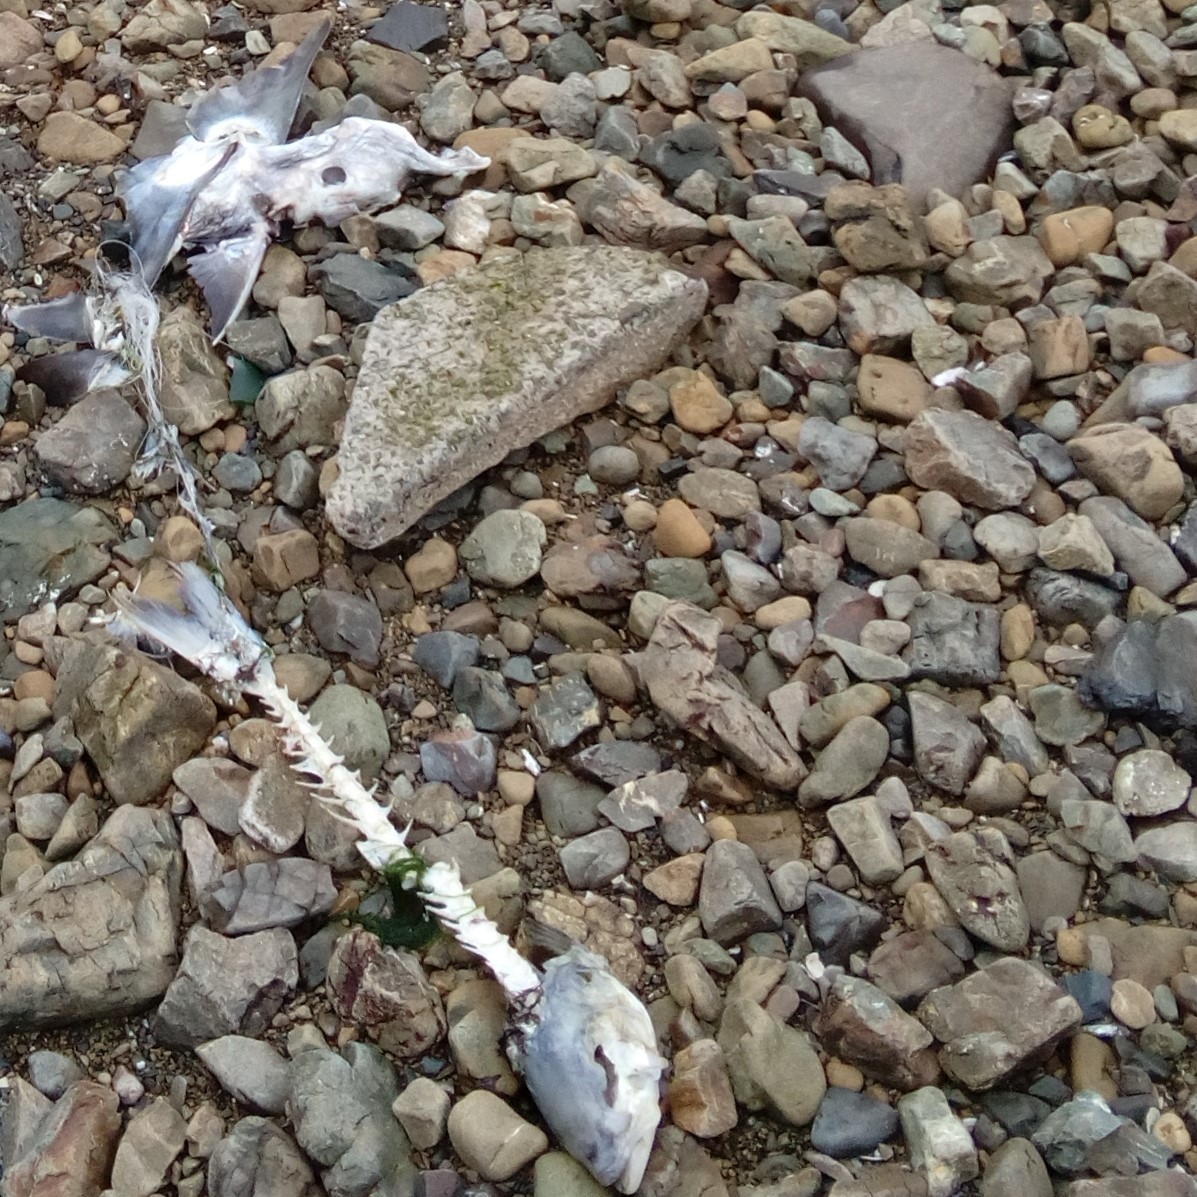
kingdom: Animalia
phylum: Chordata
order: Perciformes
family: Arripidae
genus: Arripis
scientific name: Arripis trutta
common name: Kahawai
